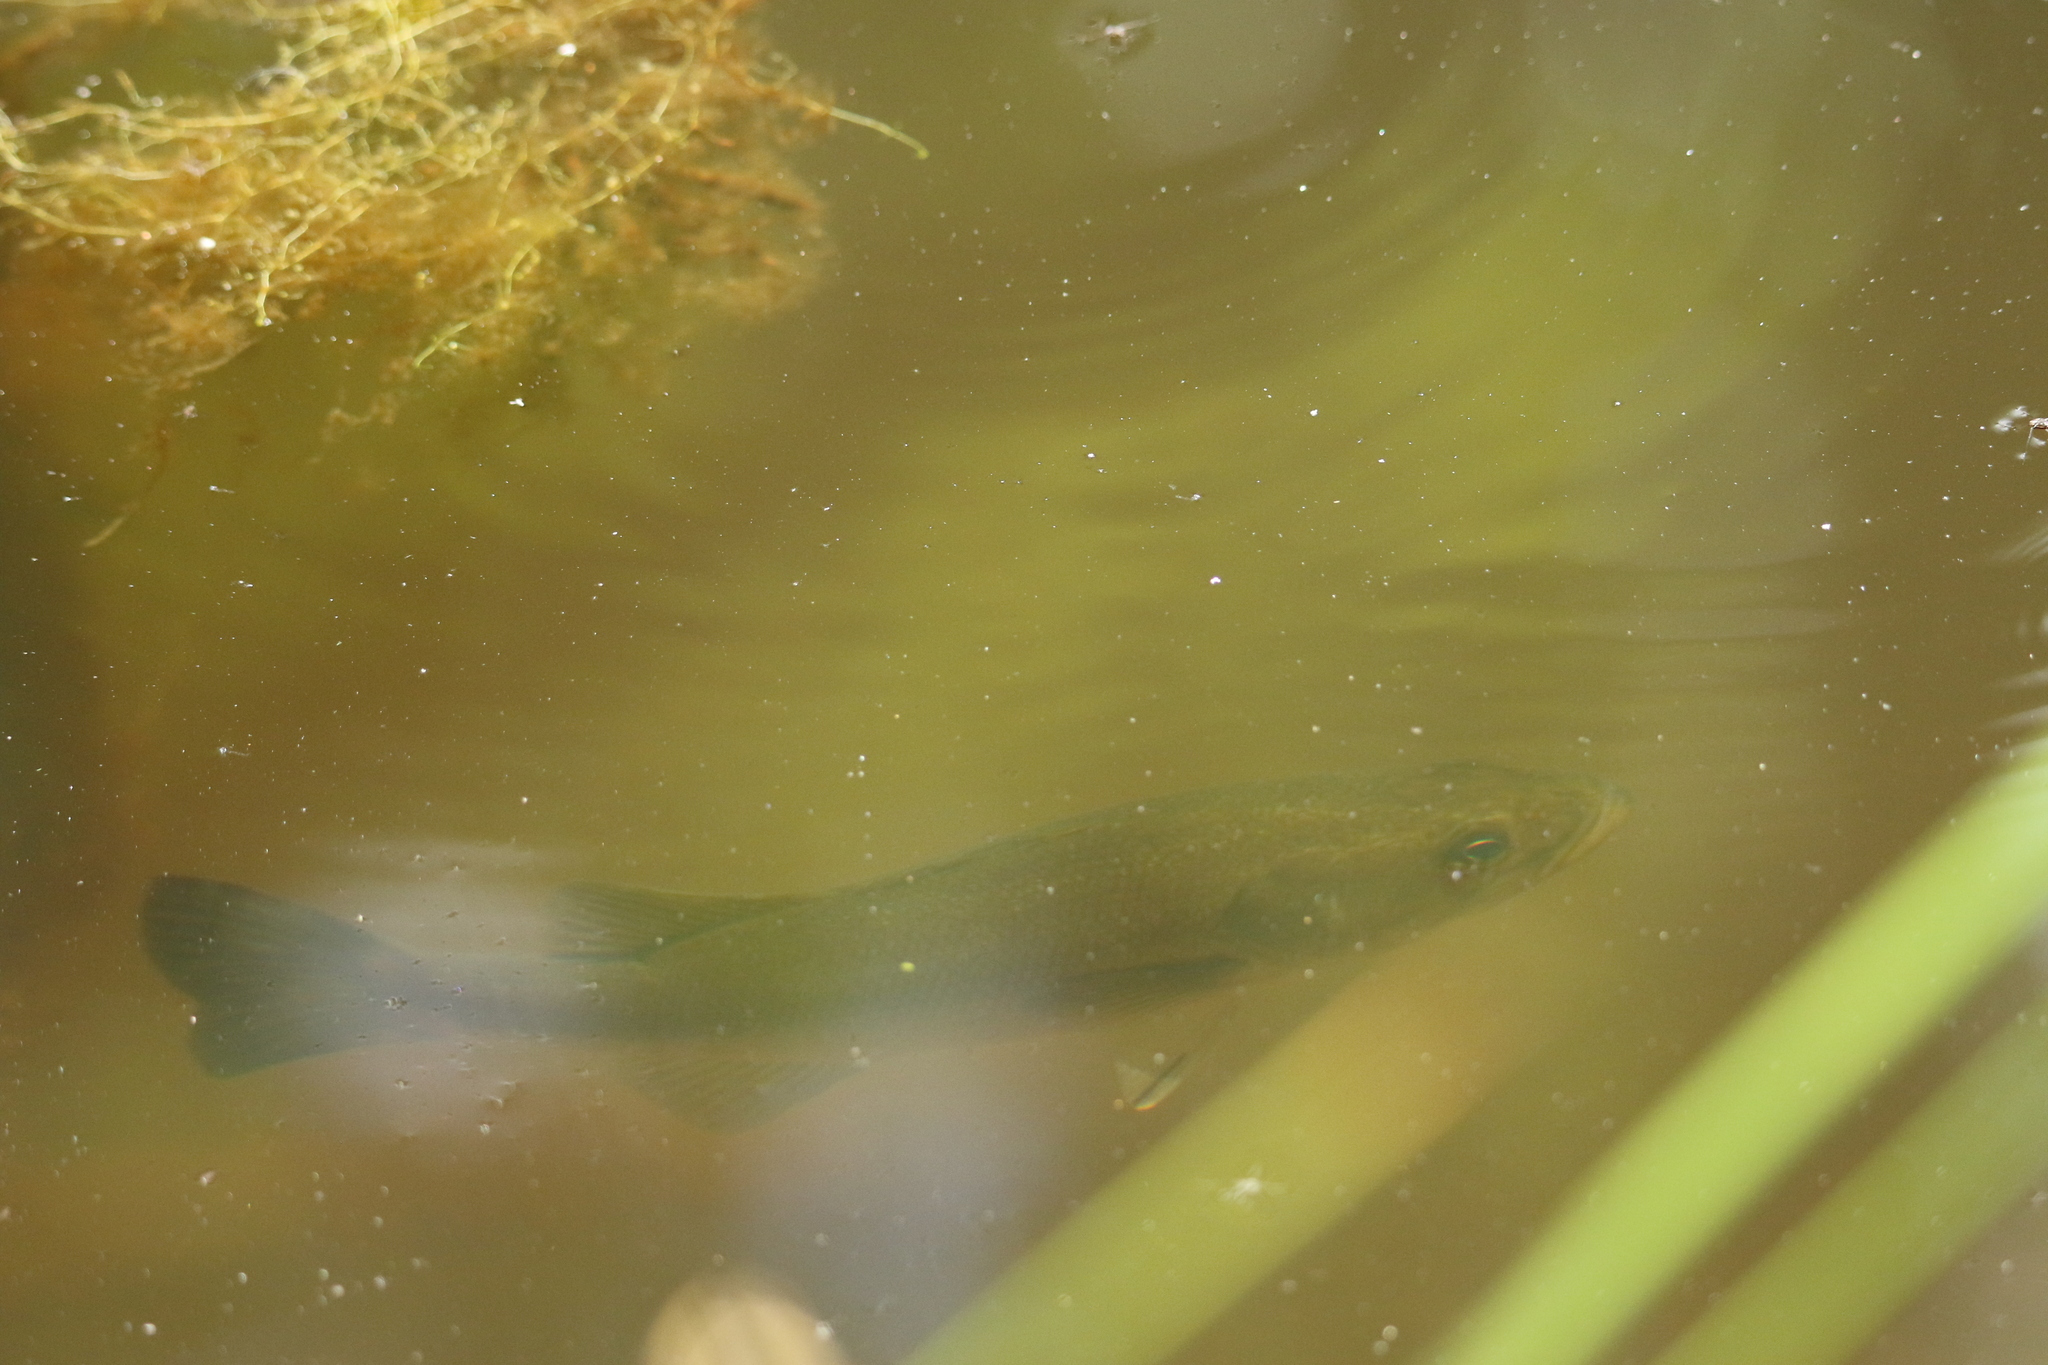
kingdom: Animalia
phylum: Chordata
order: Perciformes
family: Centrarchidae
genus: Micropterus
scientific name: Micropterus
